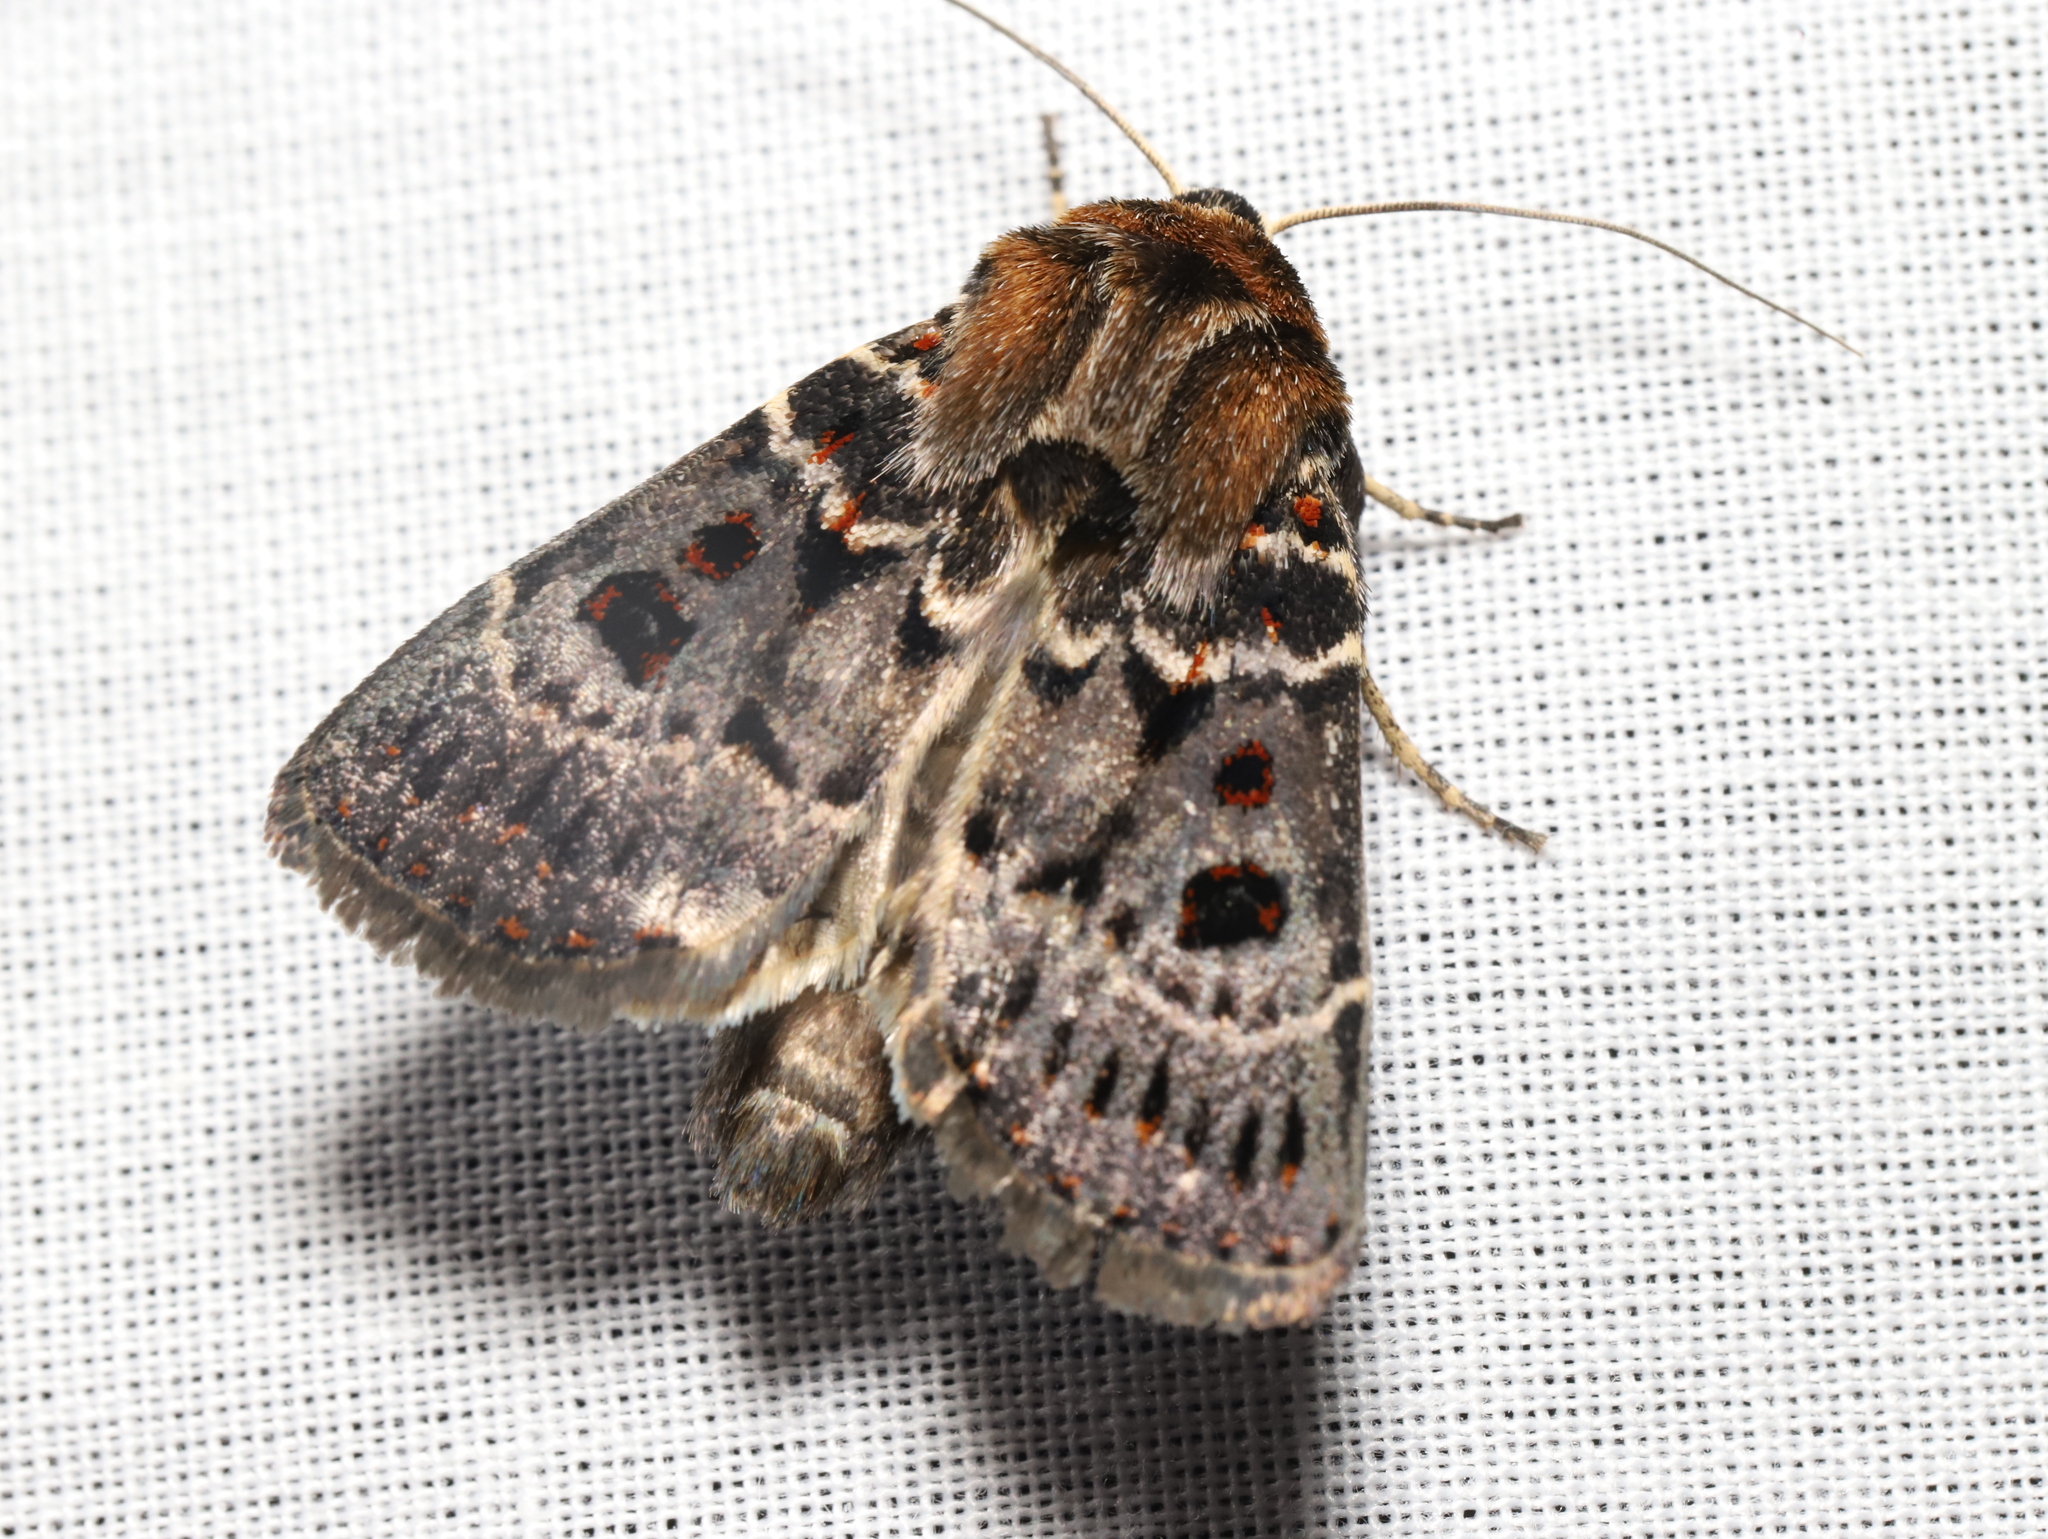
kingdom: Animalia
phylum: Arthropoda
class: Insecta
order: Lepidoptera
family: Noctuidae
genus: Proteuxoa
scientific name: Proteuxoa sanguinipuncta
